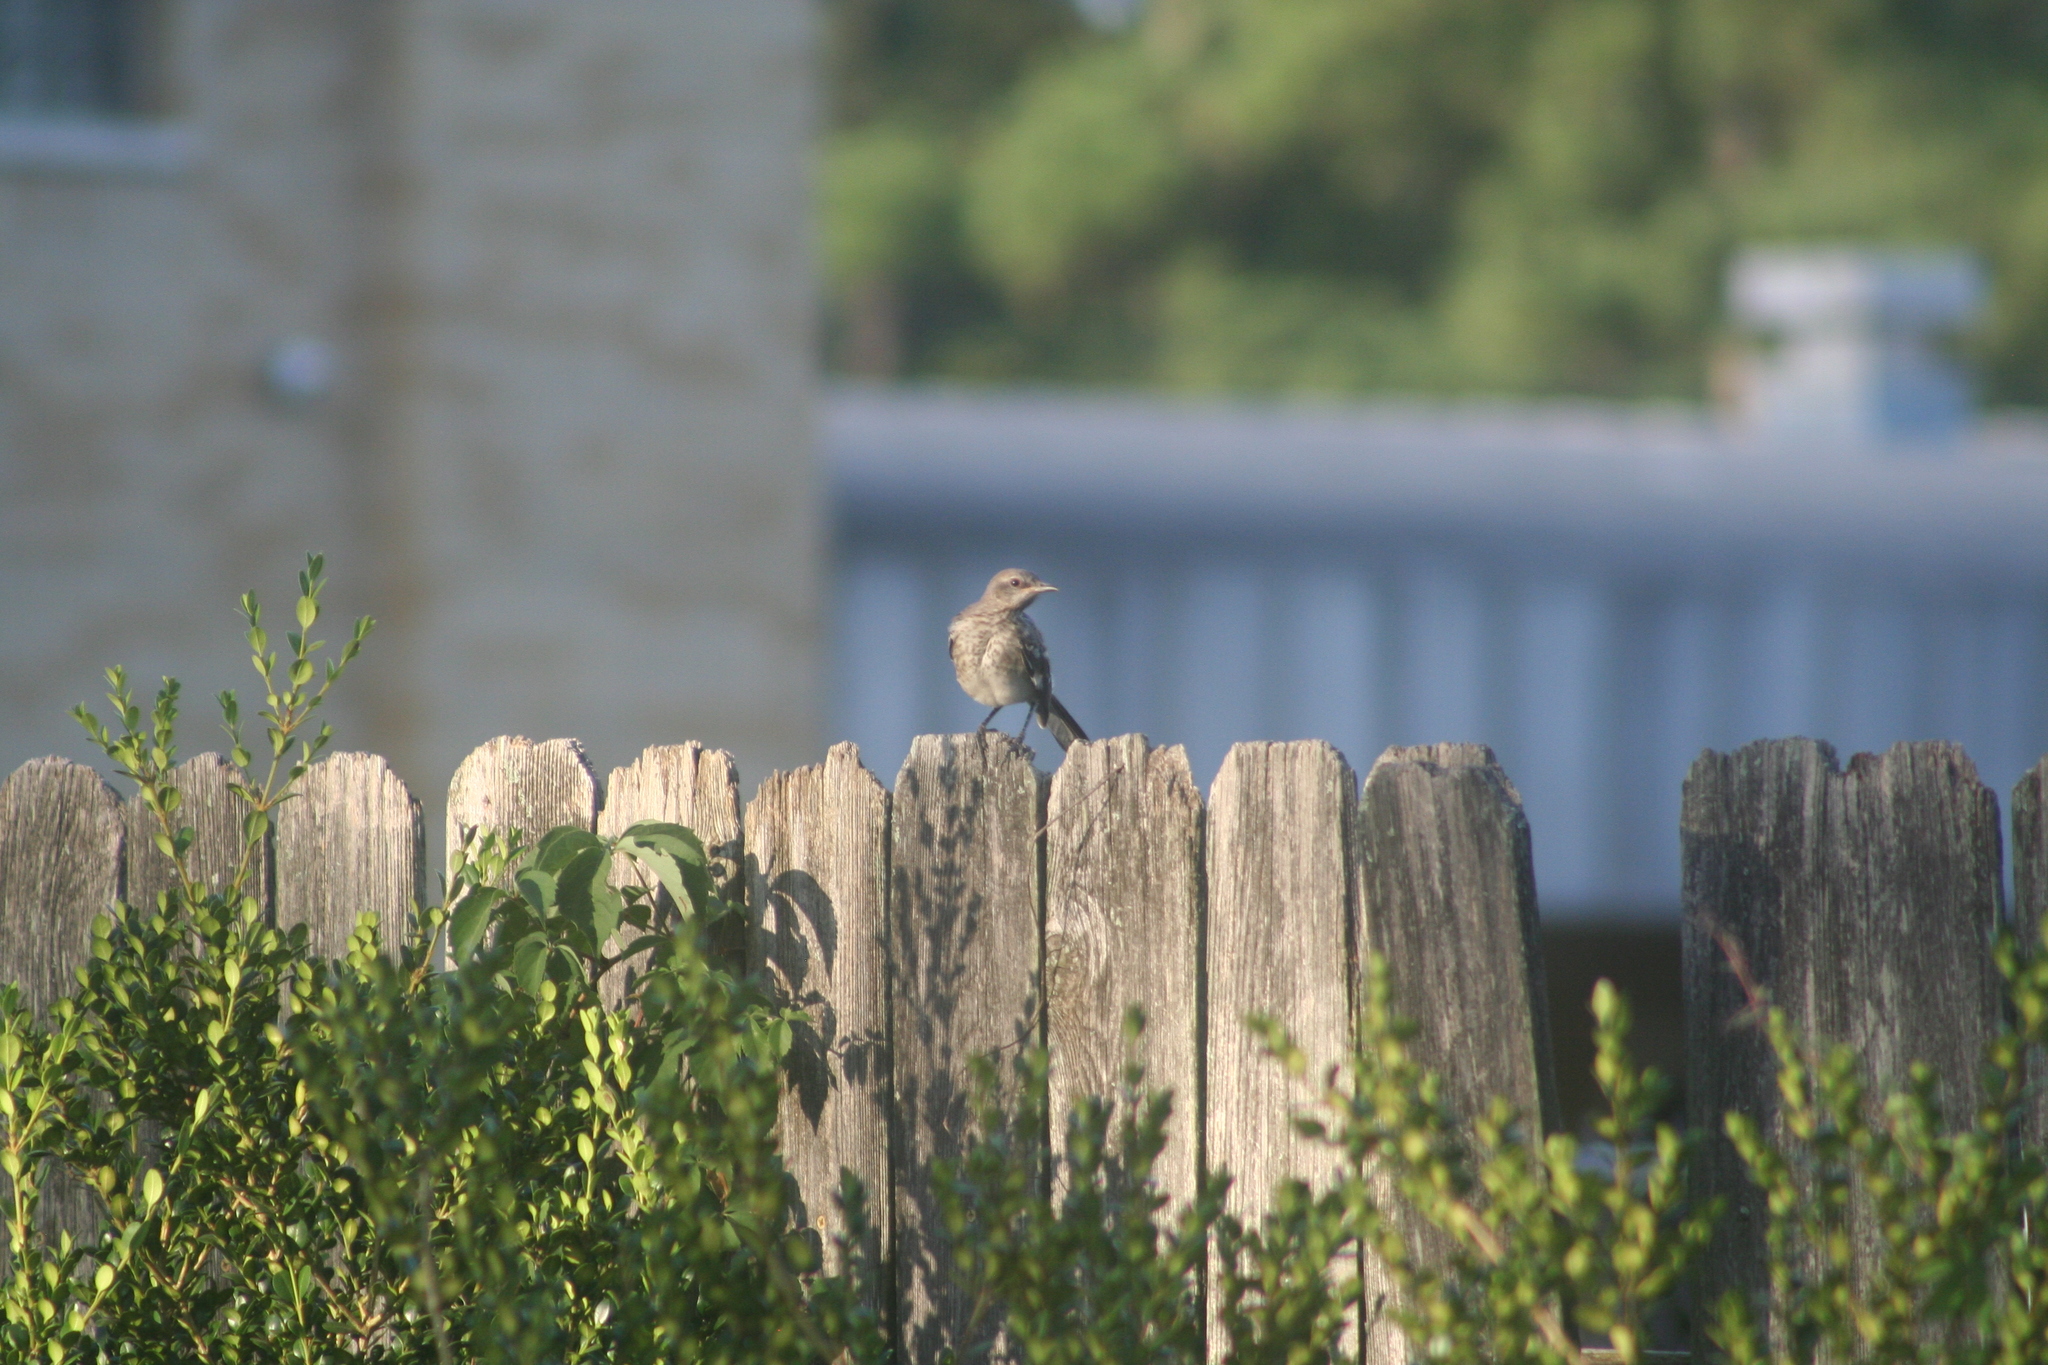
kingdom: Animalia
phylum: Chordata
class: Aves
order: Passeriformes
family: Mimidae
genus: Mimus
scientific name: Mimus polyglottos
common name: Northern mockingbird
